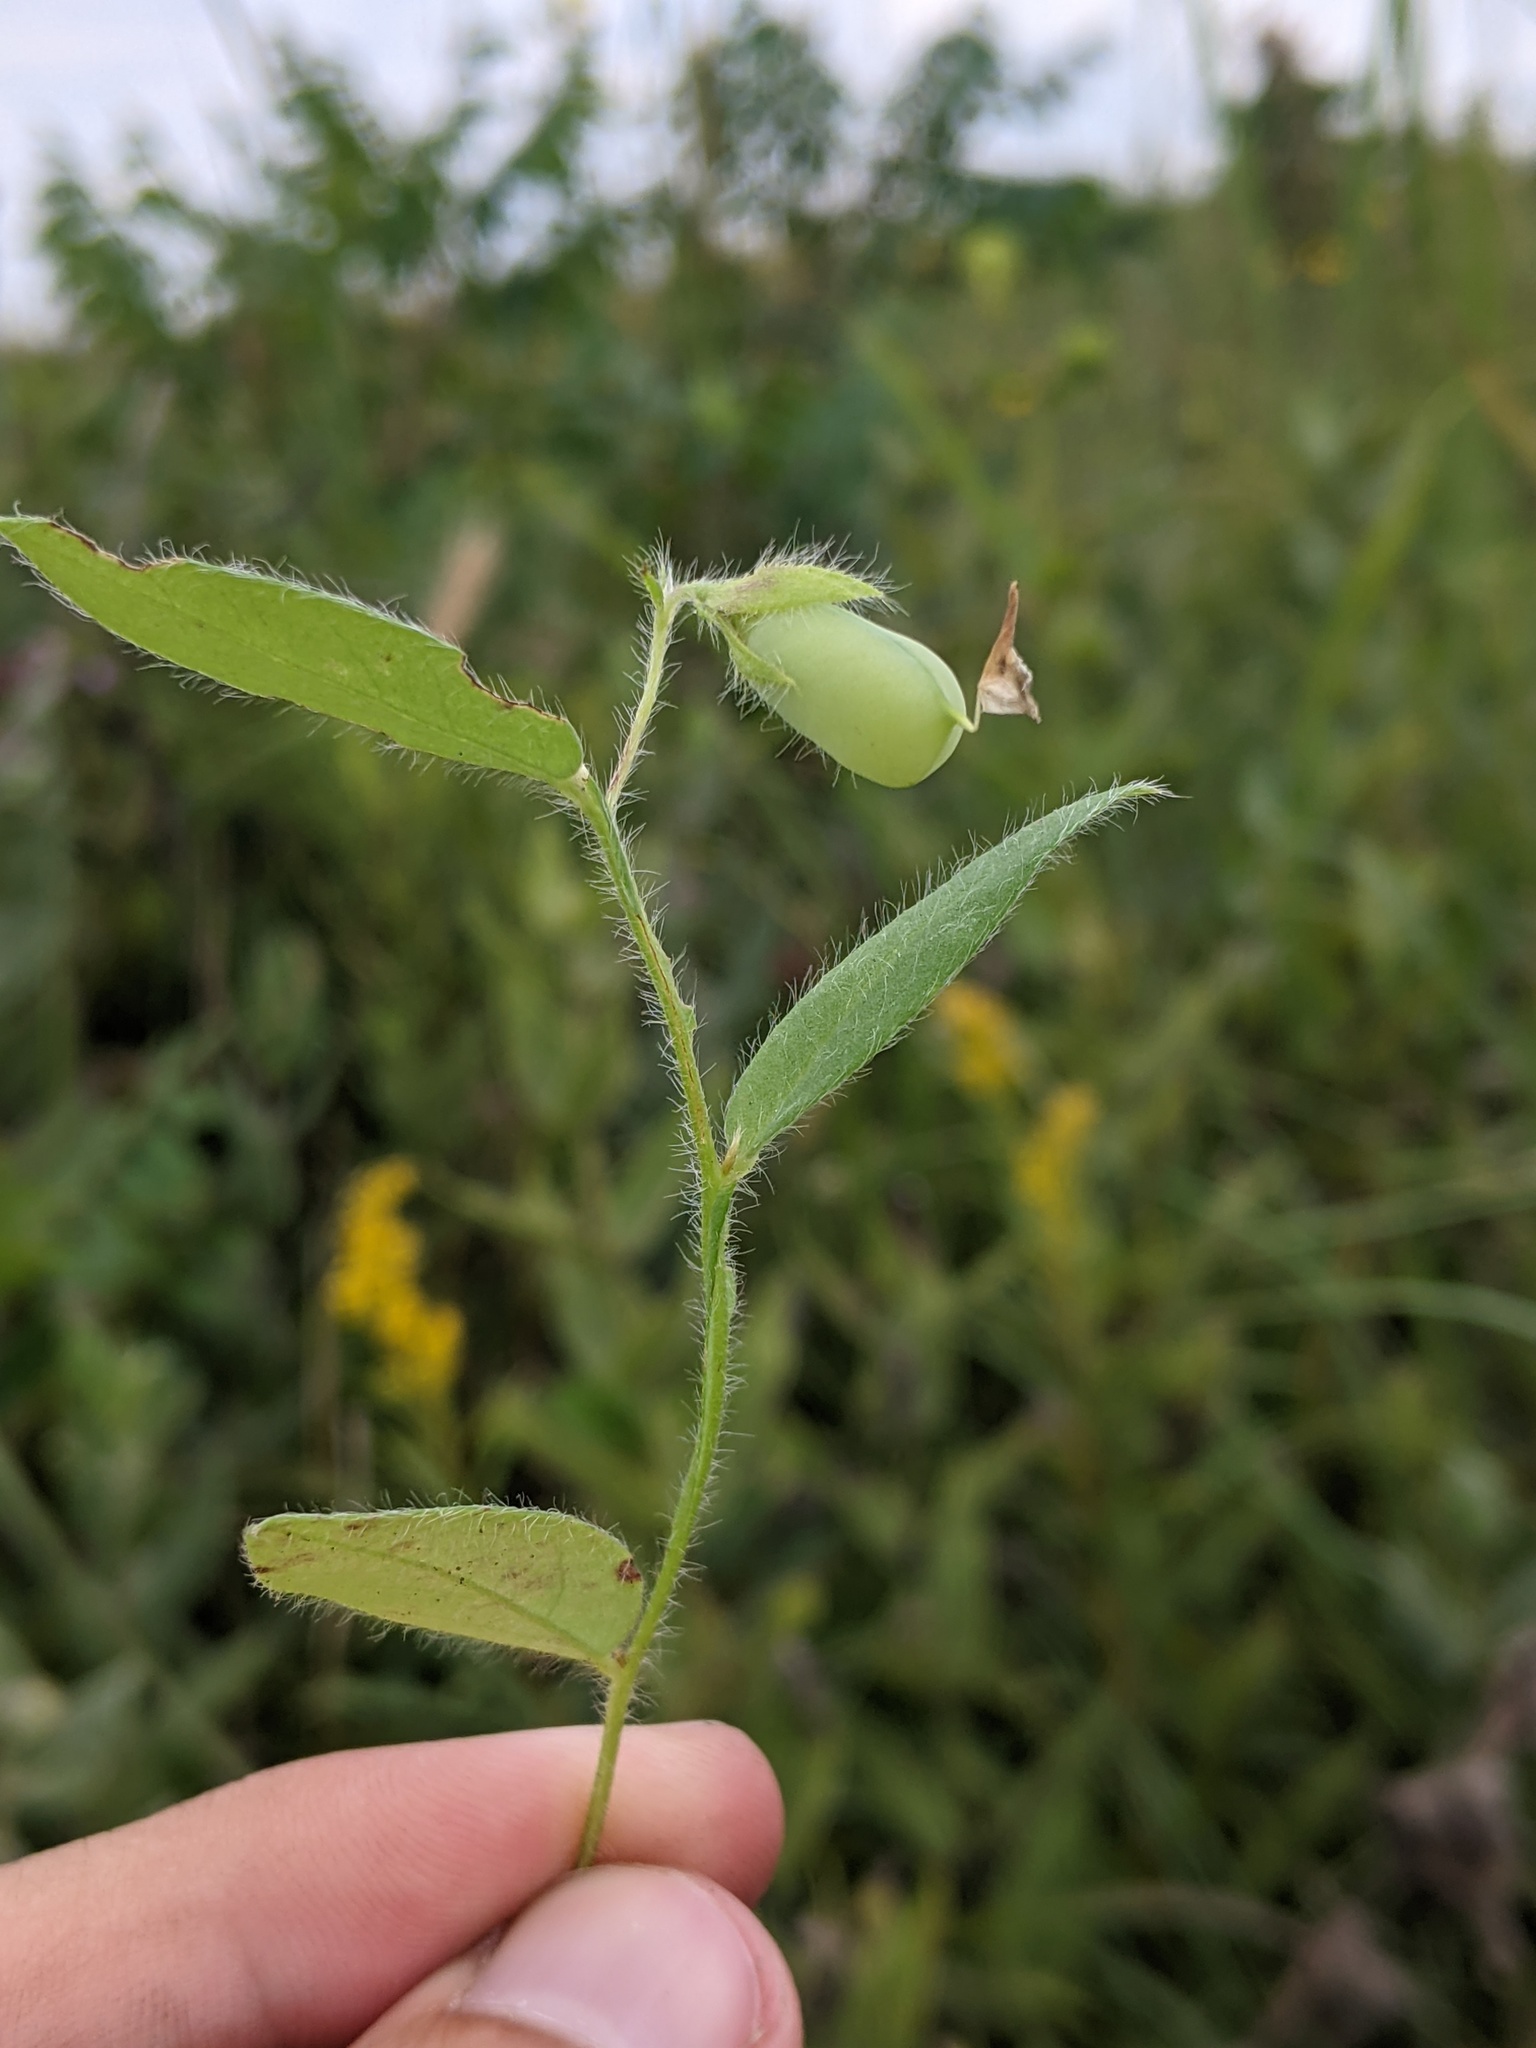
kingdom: Plantae
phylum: Tracheophyta
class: Magnoliopsida
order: Fabales
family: Fabaceae
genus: Crotalaria
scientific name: Crotalaria sagittalis
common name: Arrowhead rattlebox
